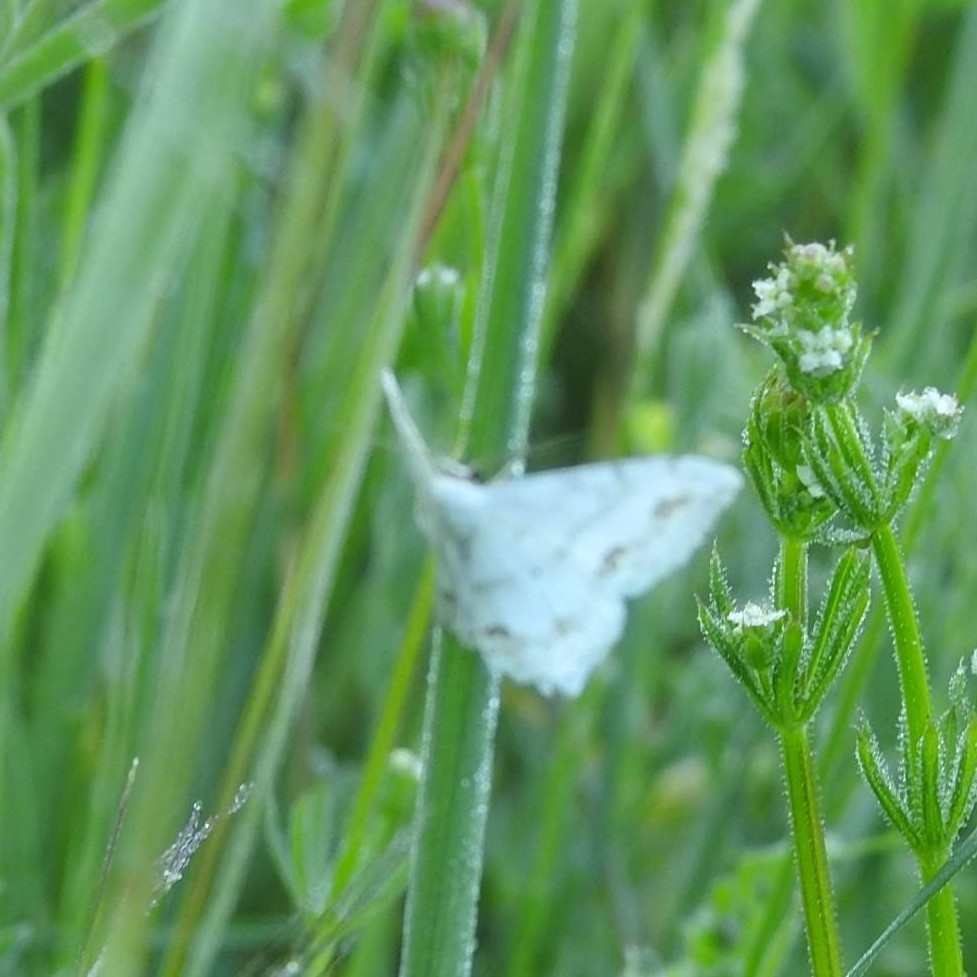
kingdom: Animalia
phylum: Arthropoda
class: Insecta
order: Lepidoptera
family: Geometridae
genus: Scopula
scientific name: Scopula ornata
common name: Lace border
